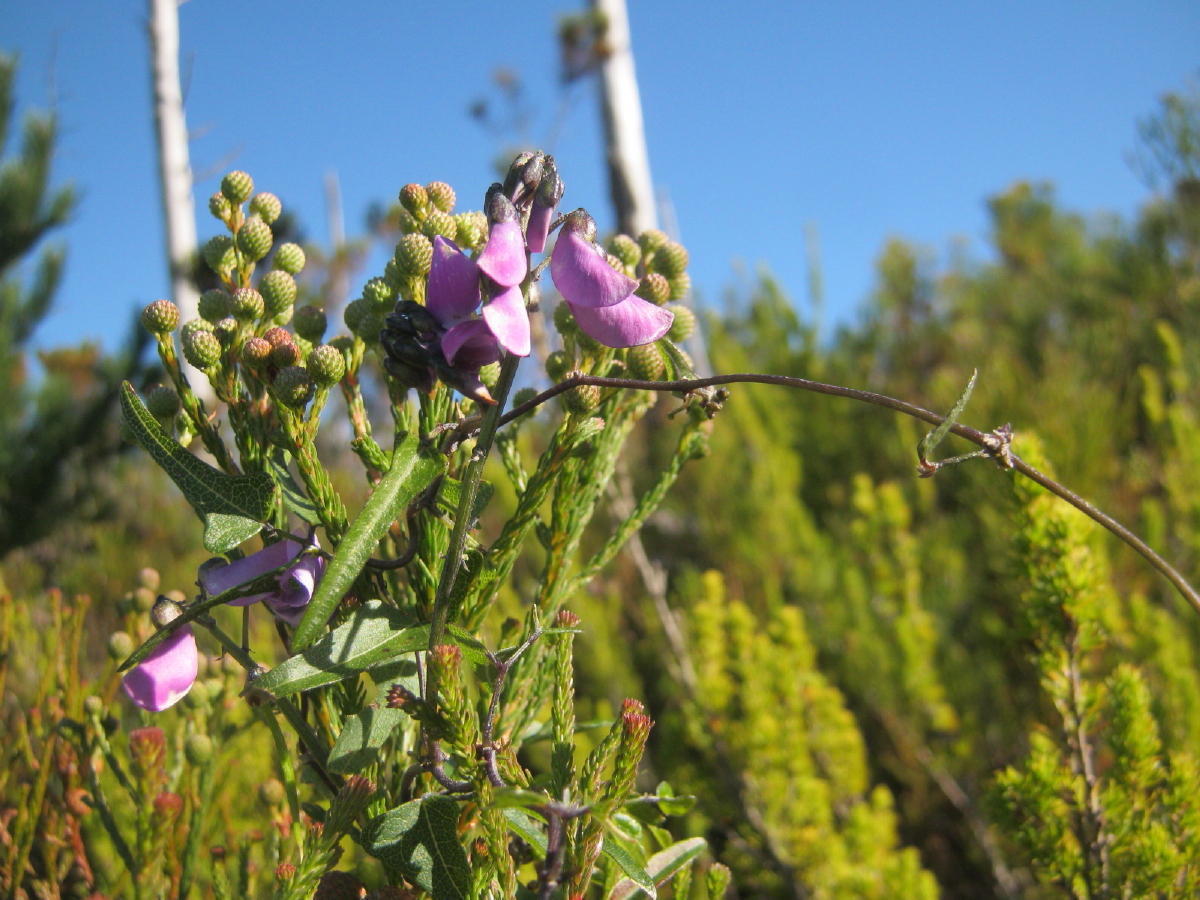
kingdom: Plantae
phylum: Tracheophyta
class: Magnoliopsida
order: Fabales
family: Fabaceae
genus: Dipogon
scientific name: Dipogon lignosus
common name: Okie bean
